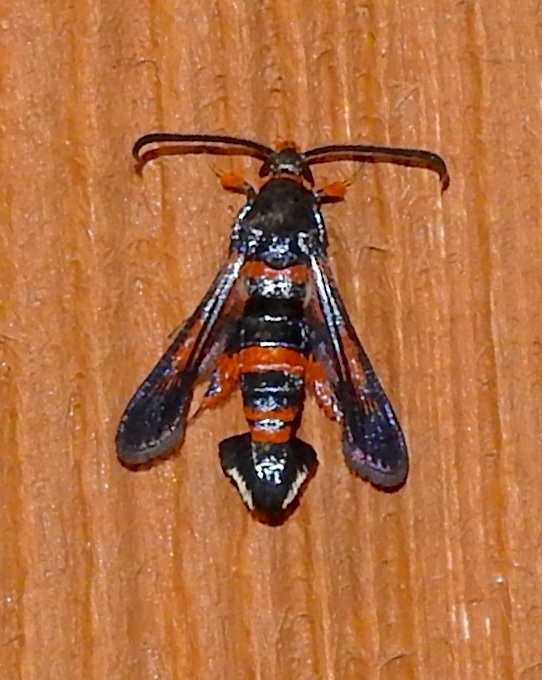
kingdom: Animalia
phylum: Arthropoda
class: Insecta
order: Lepidoptera
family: Sesiidae
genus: Synanthedon
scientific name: Synanthedon sapygaeformis
